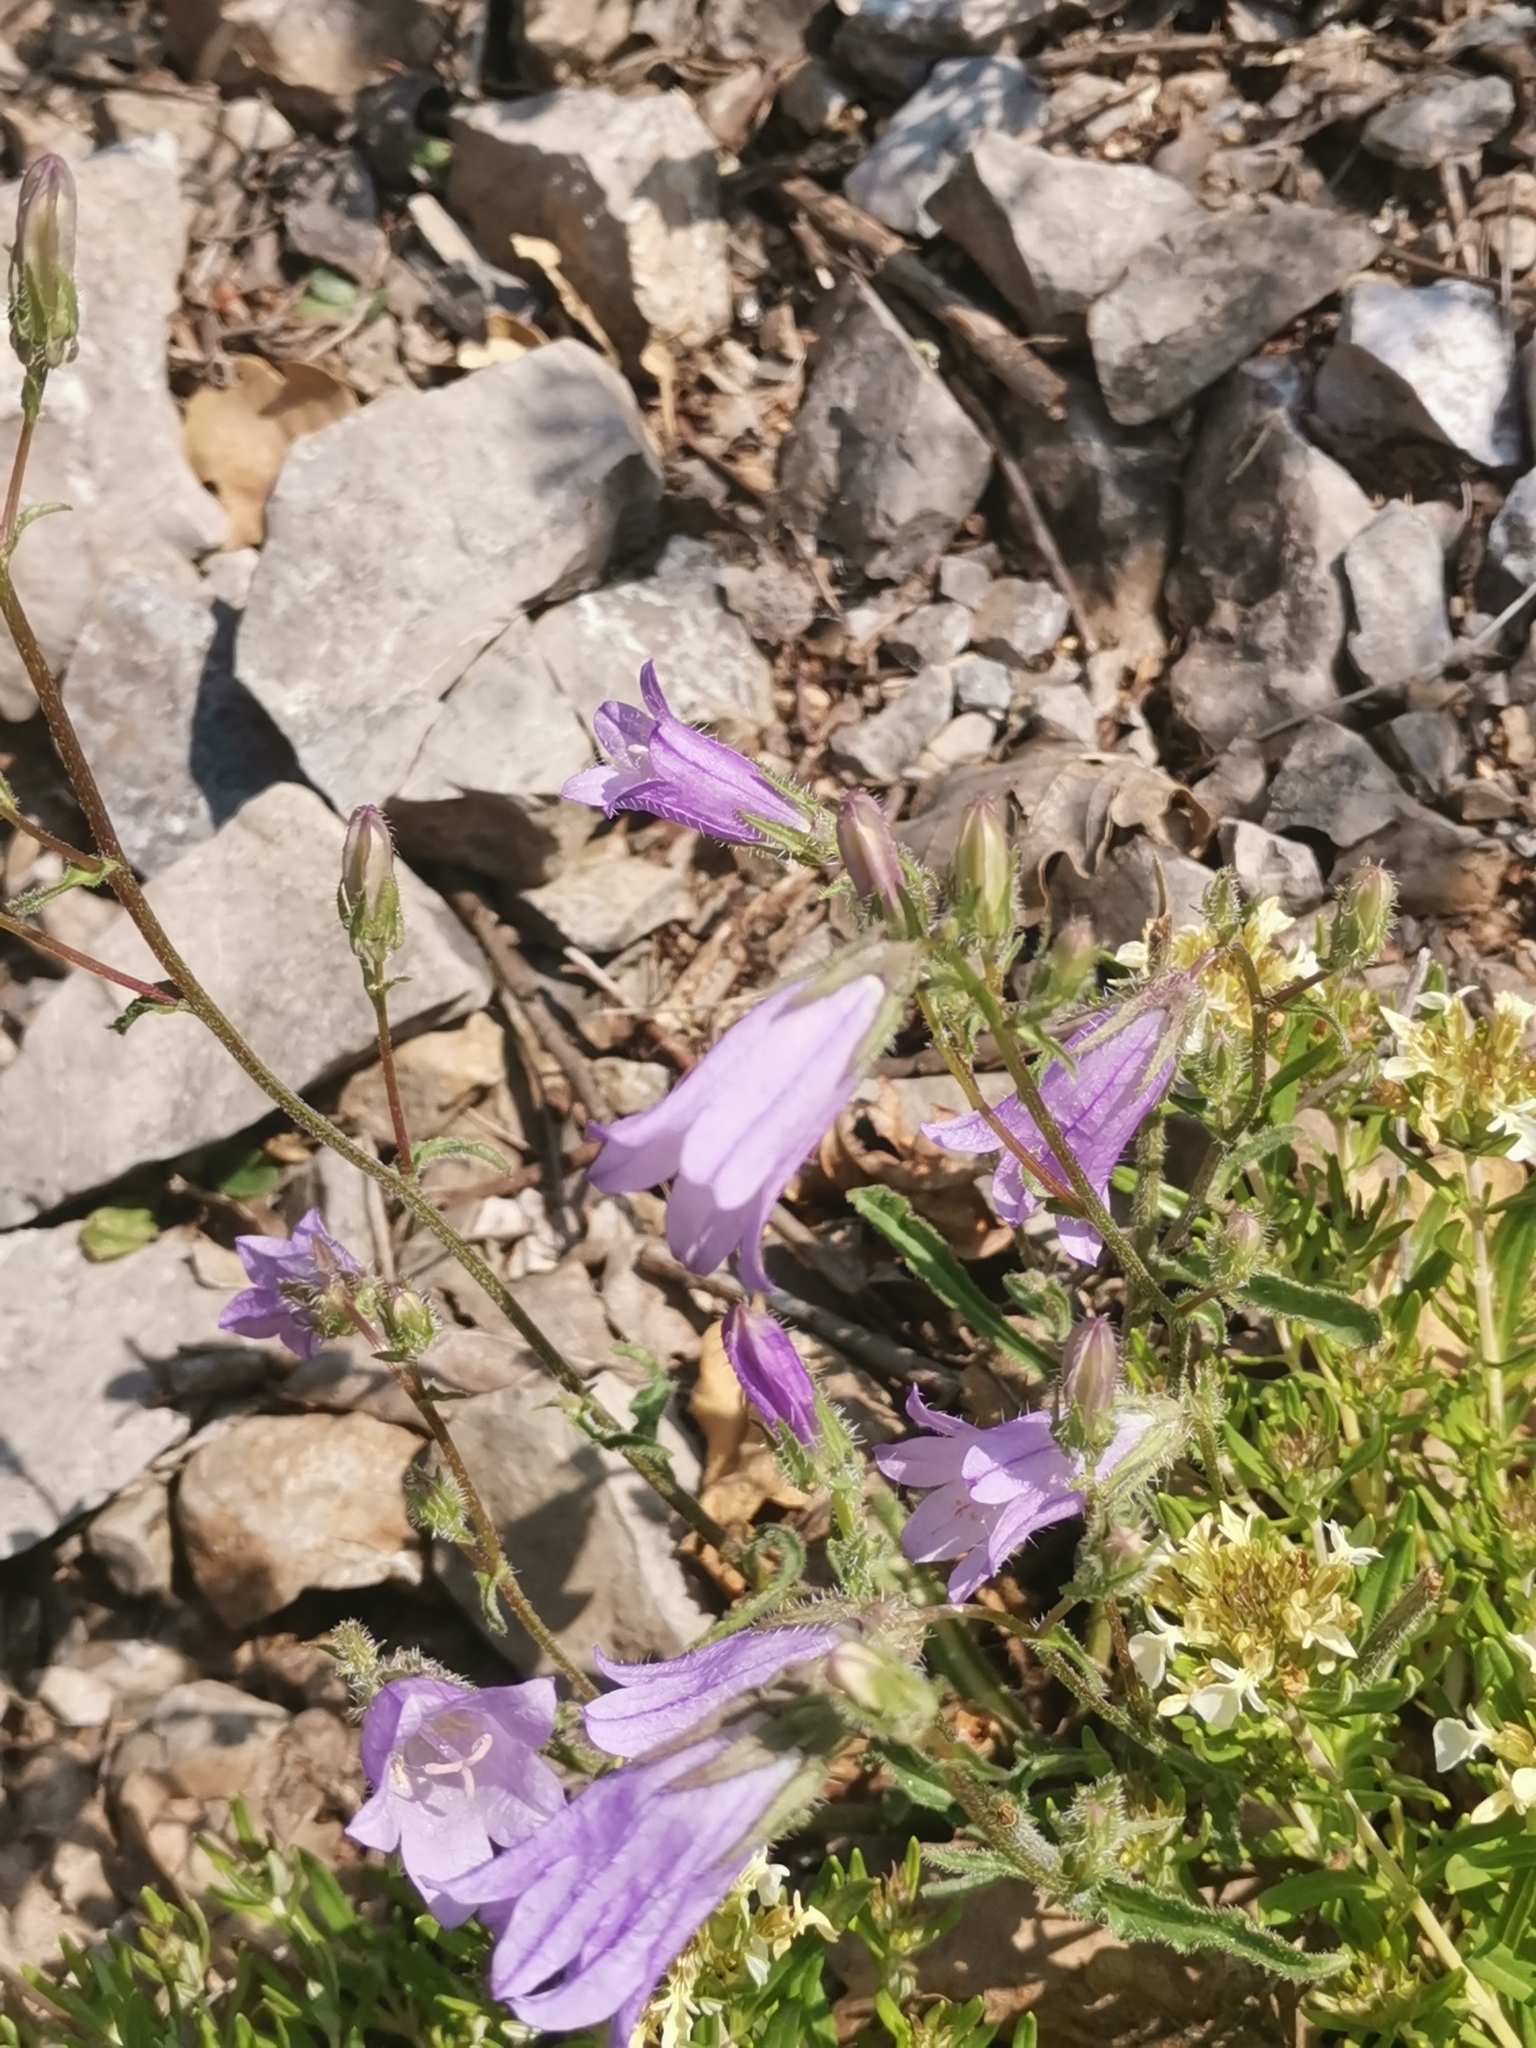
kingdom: Plantae
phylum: Tracheophyta
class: Magnoliopsida
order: Asterales
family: Campanulaceae
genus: Campanula
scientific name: Campanula sibirica
